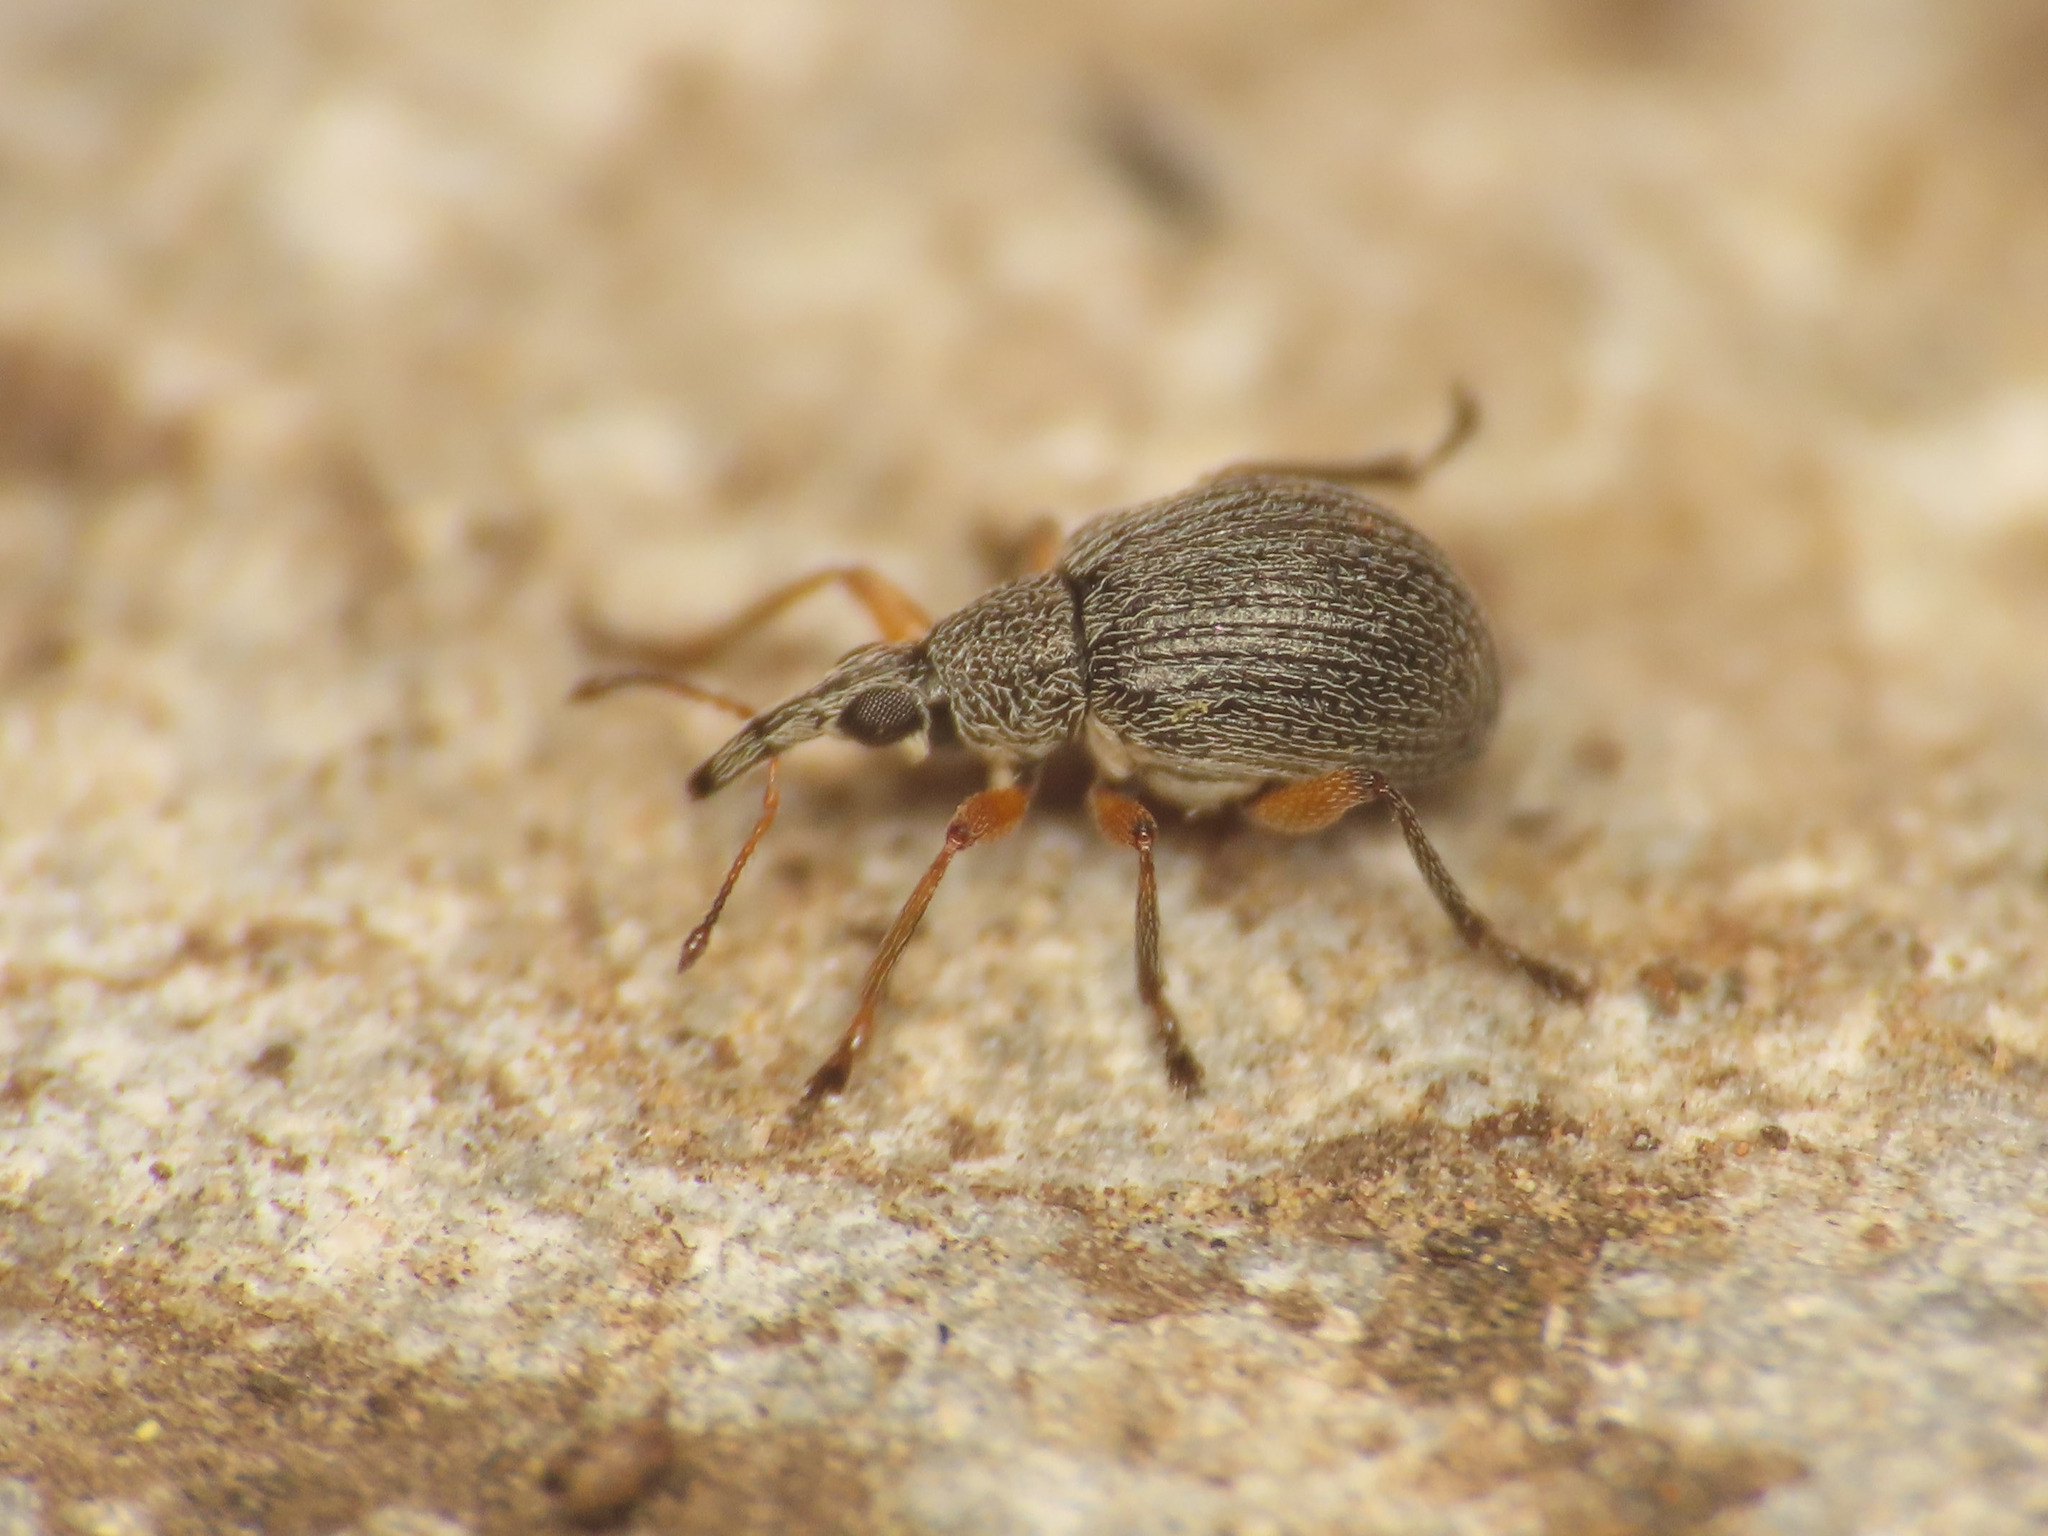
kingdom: Animalia
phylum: Arthropoda
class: Insecta
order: Coleoptera
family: Brentidae
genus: Eutrichapion
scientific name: Eutrichapion viciae
